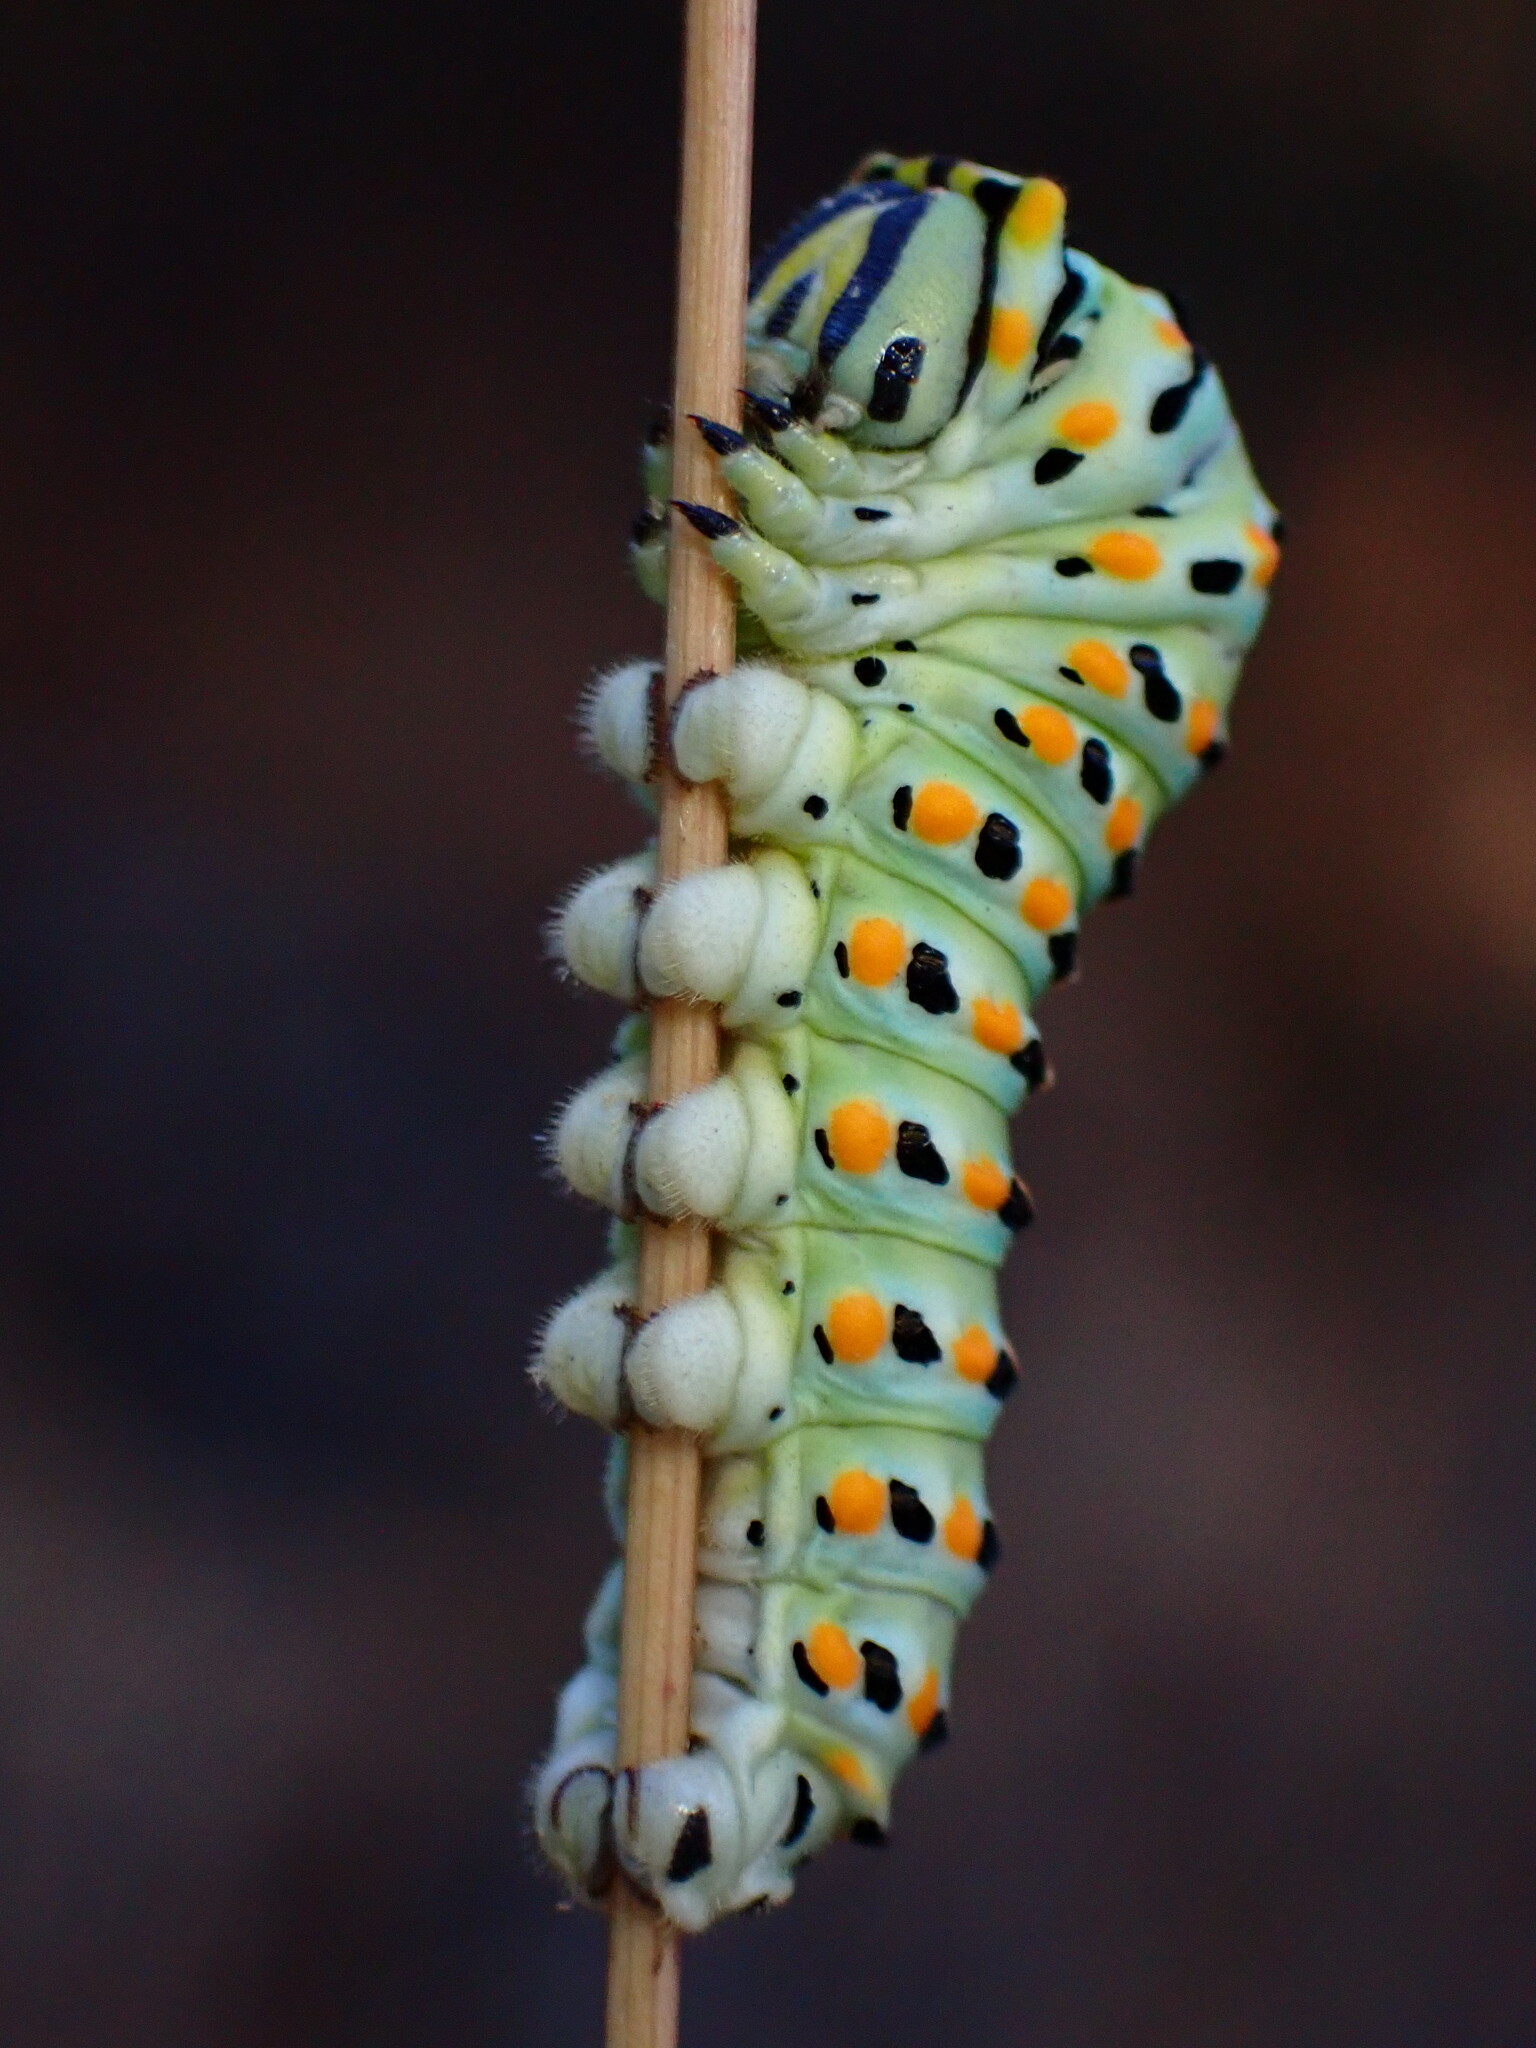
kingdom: Animalia
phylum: Arthropoda
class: Insecta
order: Lepidoptera
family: Papilionidae
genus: Papilio
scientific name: Papilio zelicaon
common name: Anise swallowtail
